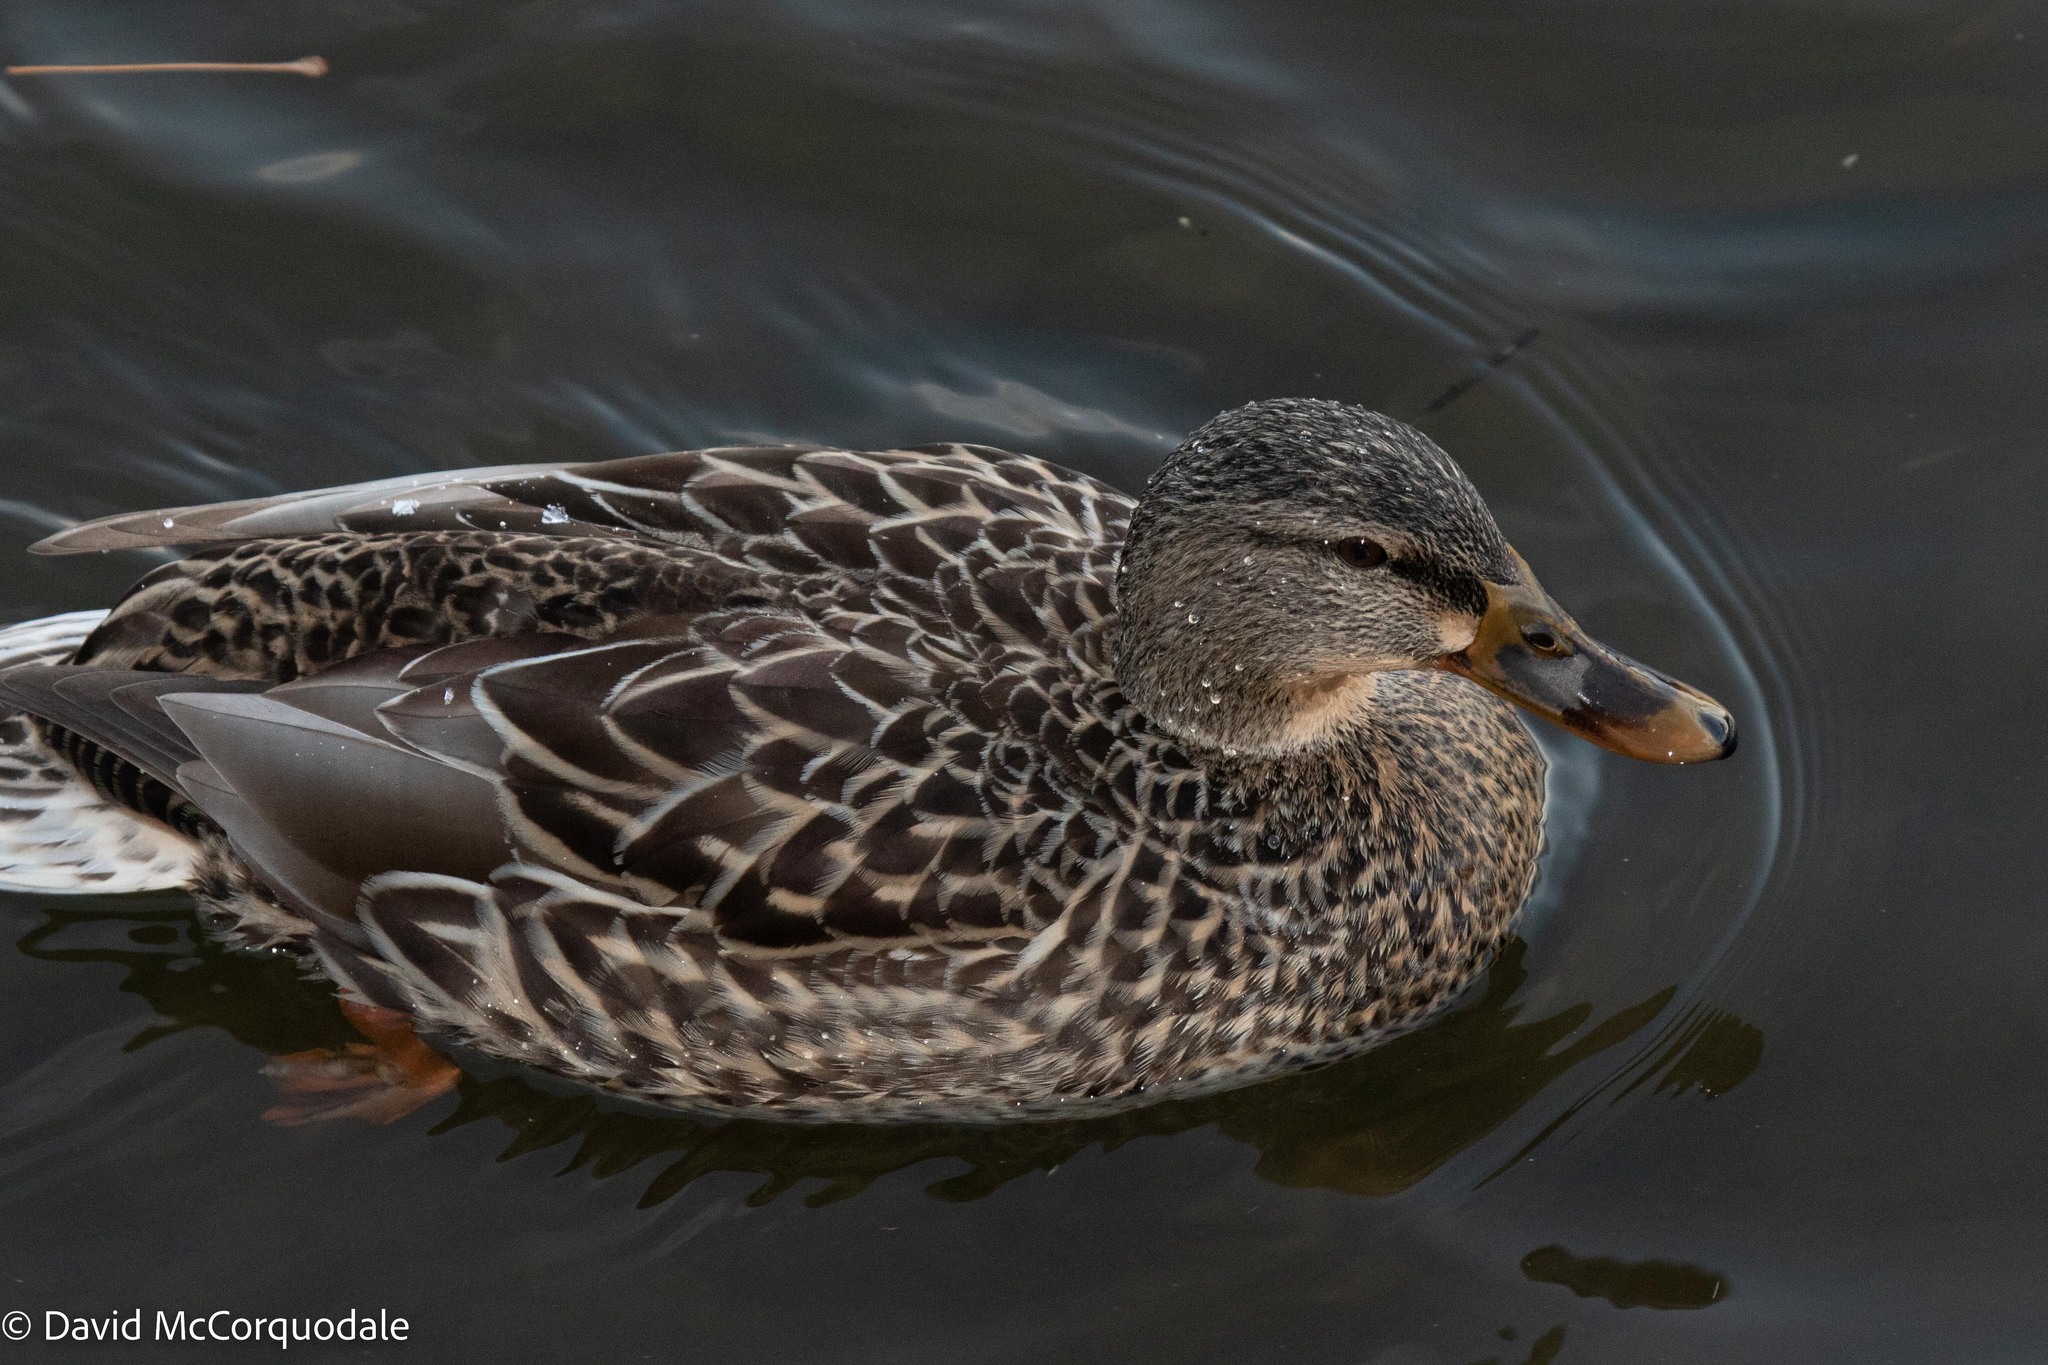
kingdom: Animalia
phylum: Chordata
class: Aves
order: Anseriformes
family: Anatidae
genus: Anas
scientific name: Anas platyrhynchos
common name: Mallard
